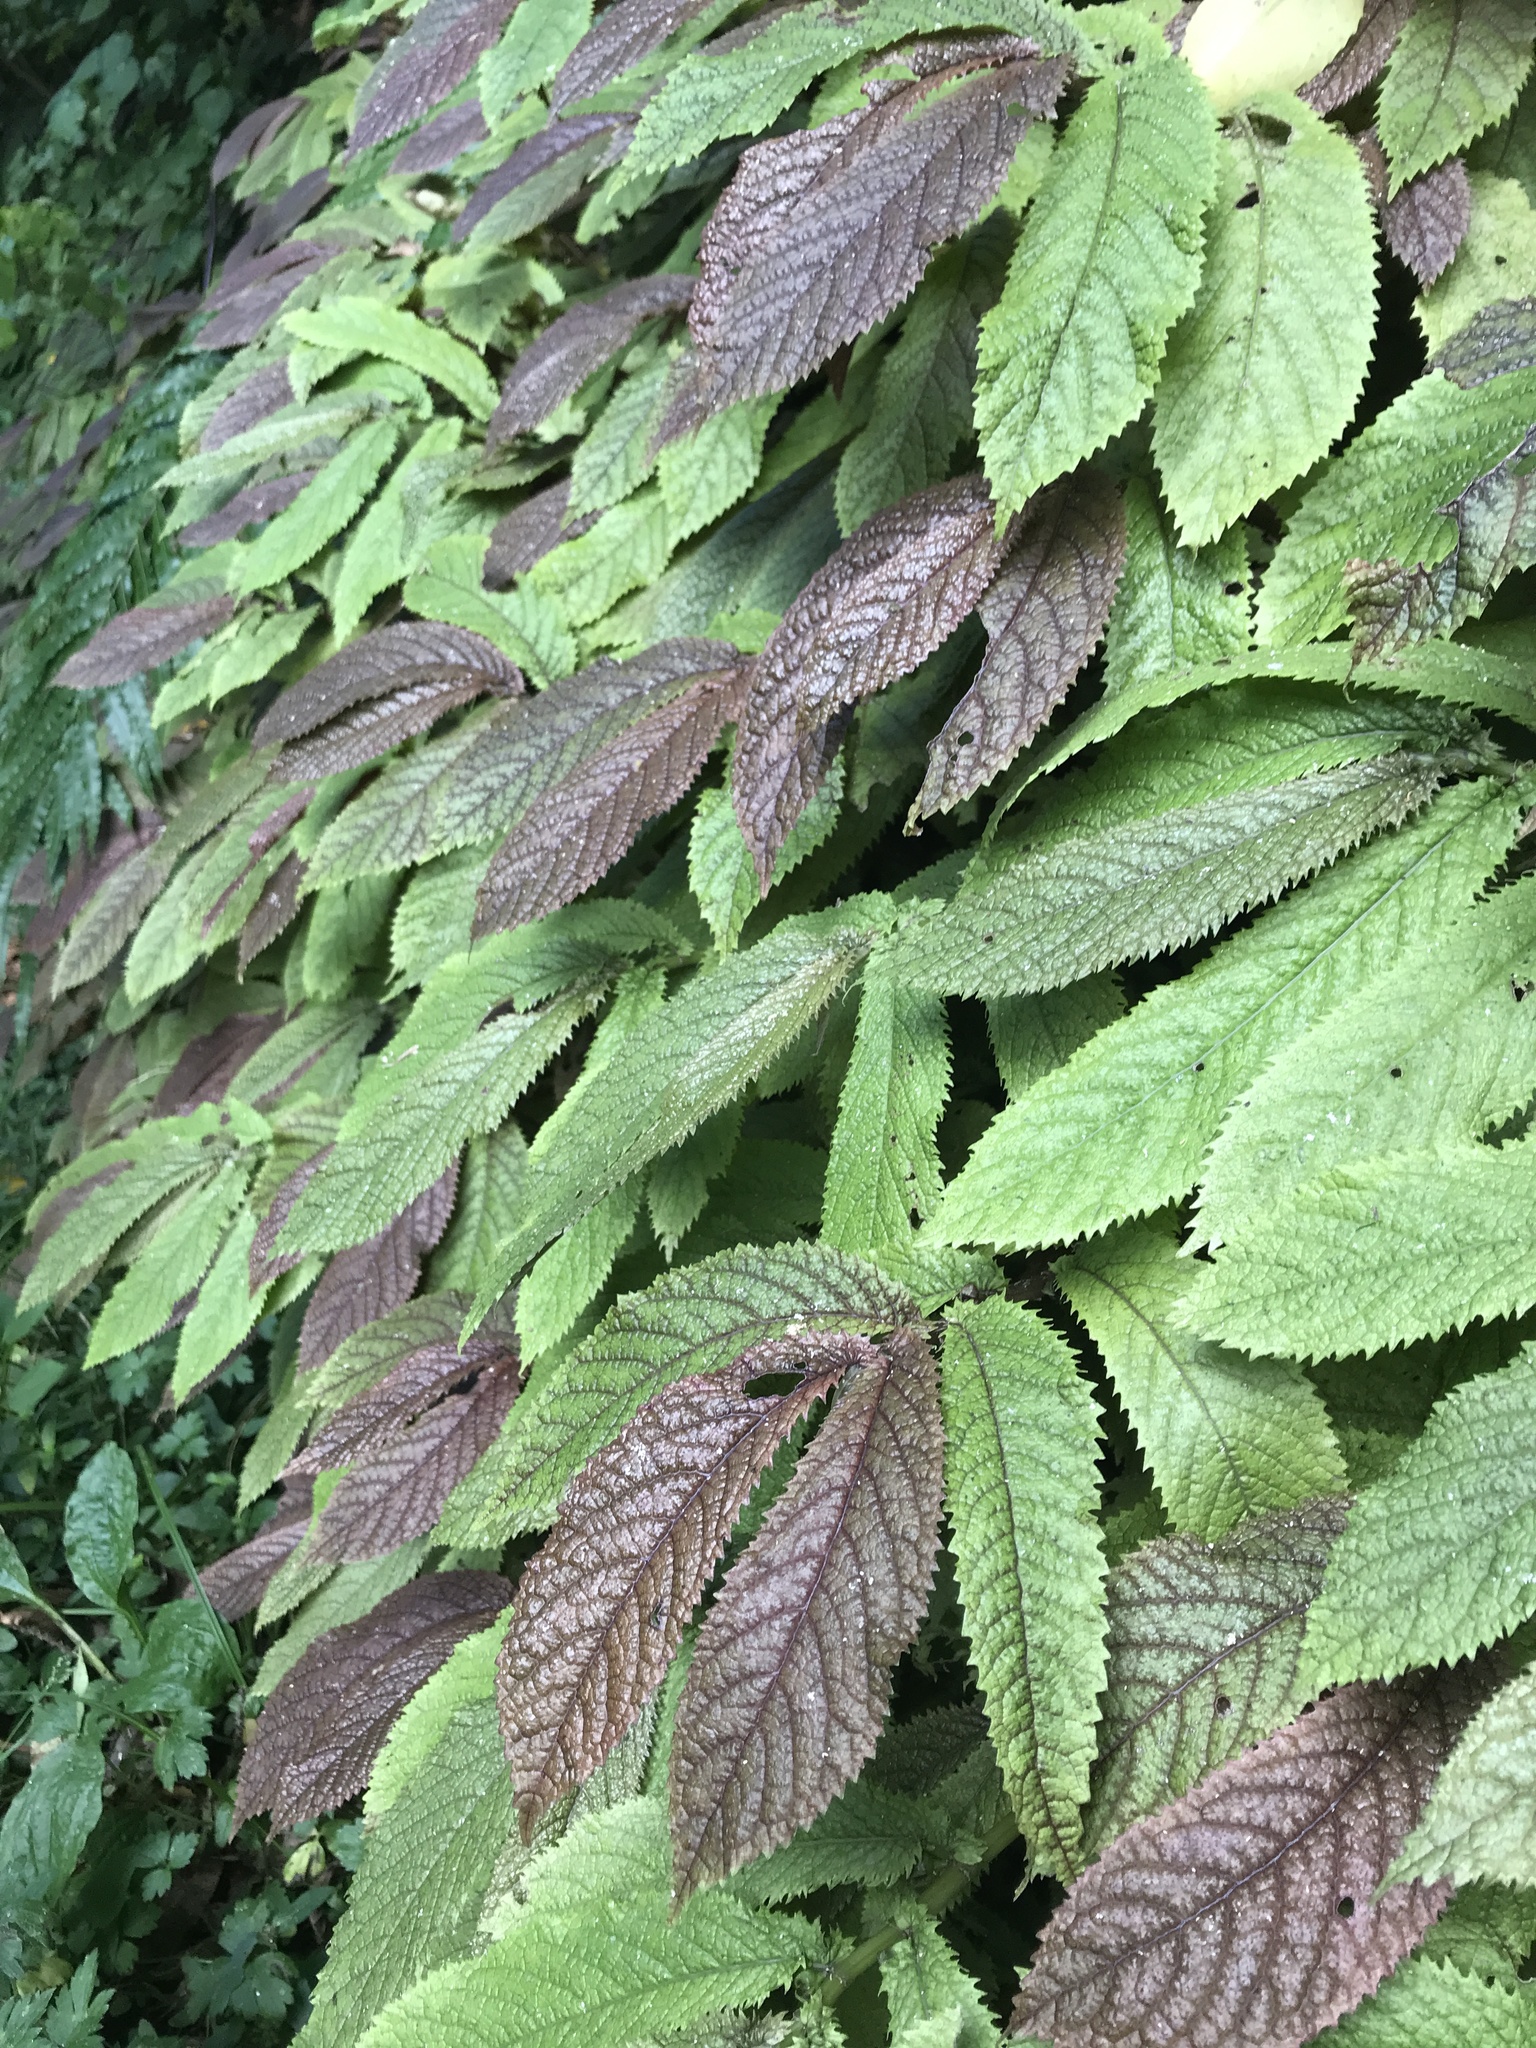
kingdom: Plantae
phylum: Tracheophyta
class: Magnoliopsida
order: Rosales
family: Urticaceae
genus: Elatostema
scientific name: Elatostema rugosum
